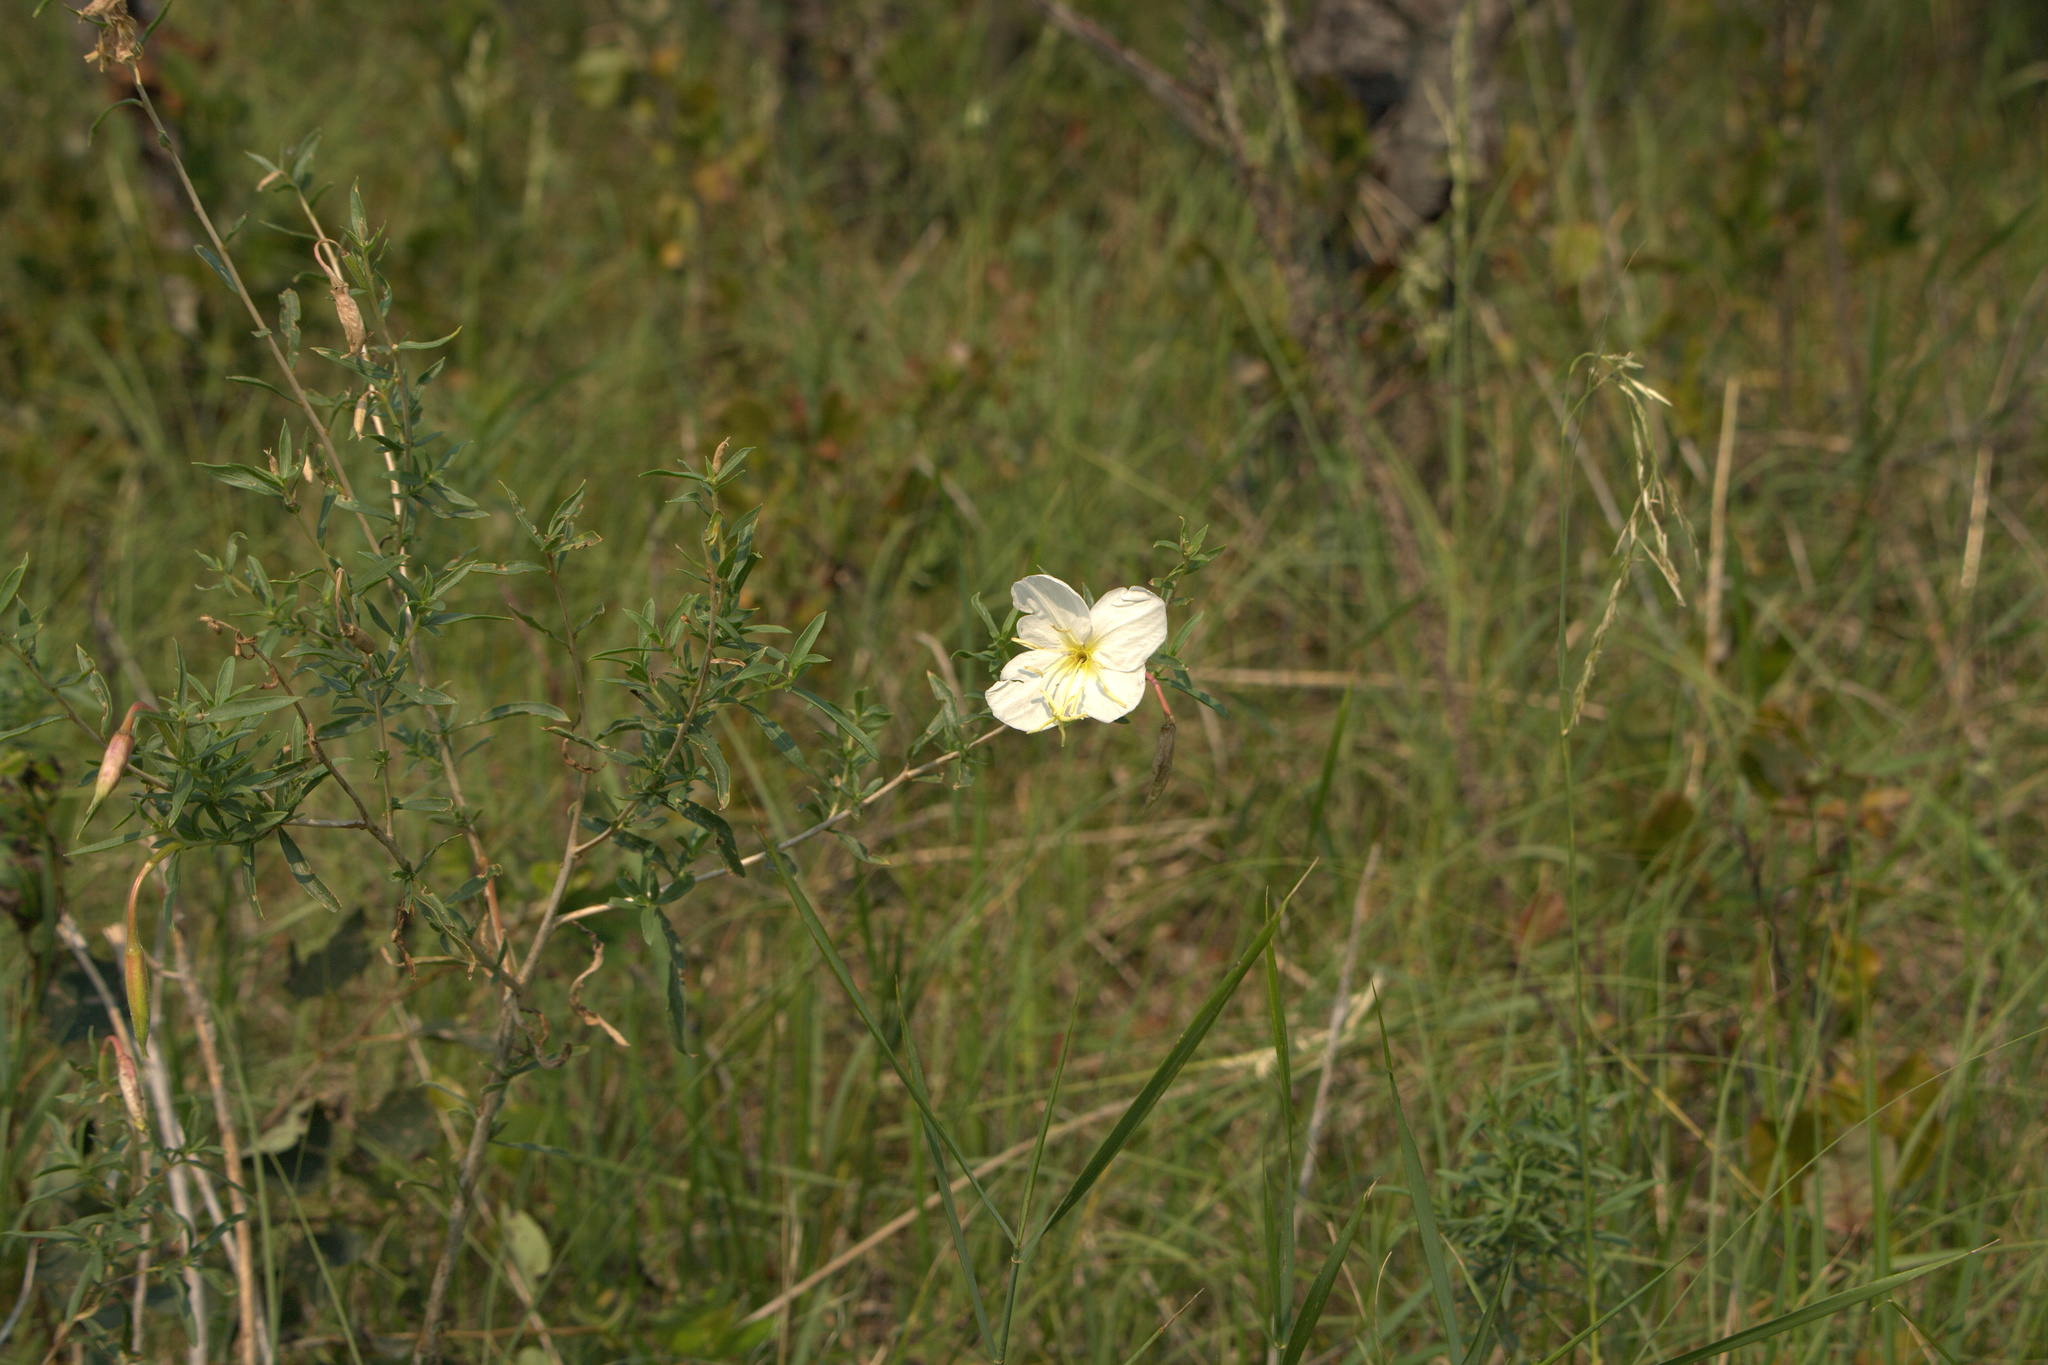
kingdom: Plantae
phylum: Tracheophyta
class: Magnoliopsida
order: Myrtales
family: Onagraceae
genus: Oenothera
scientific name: Oenothera nuttallii
